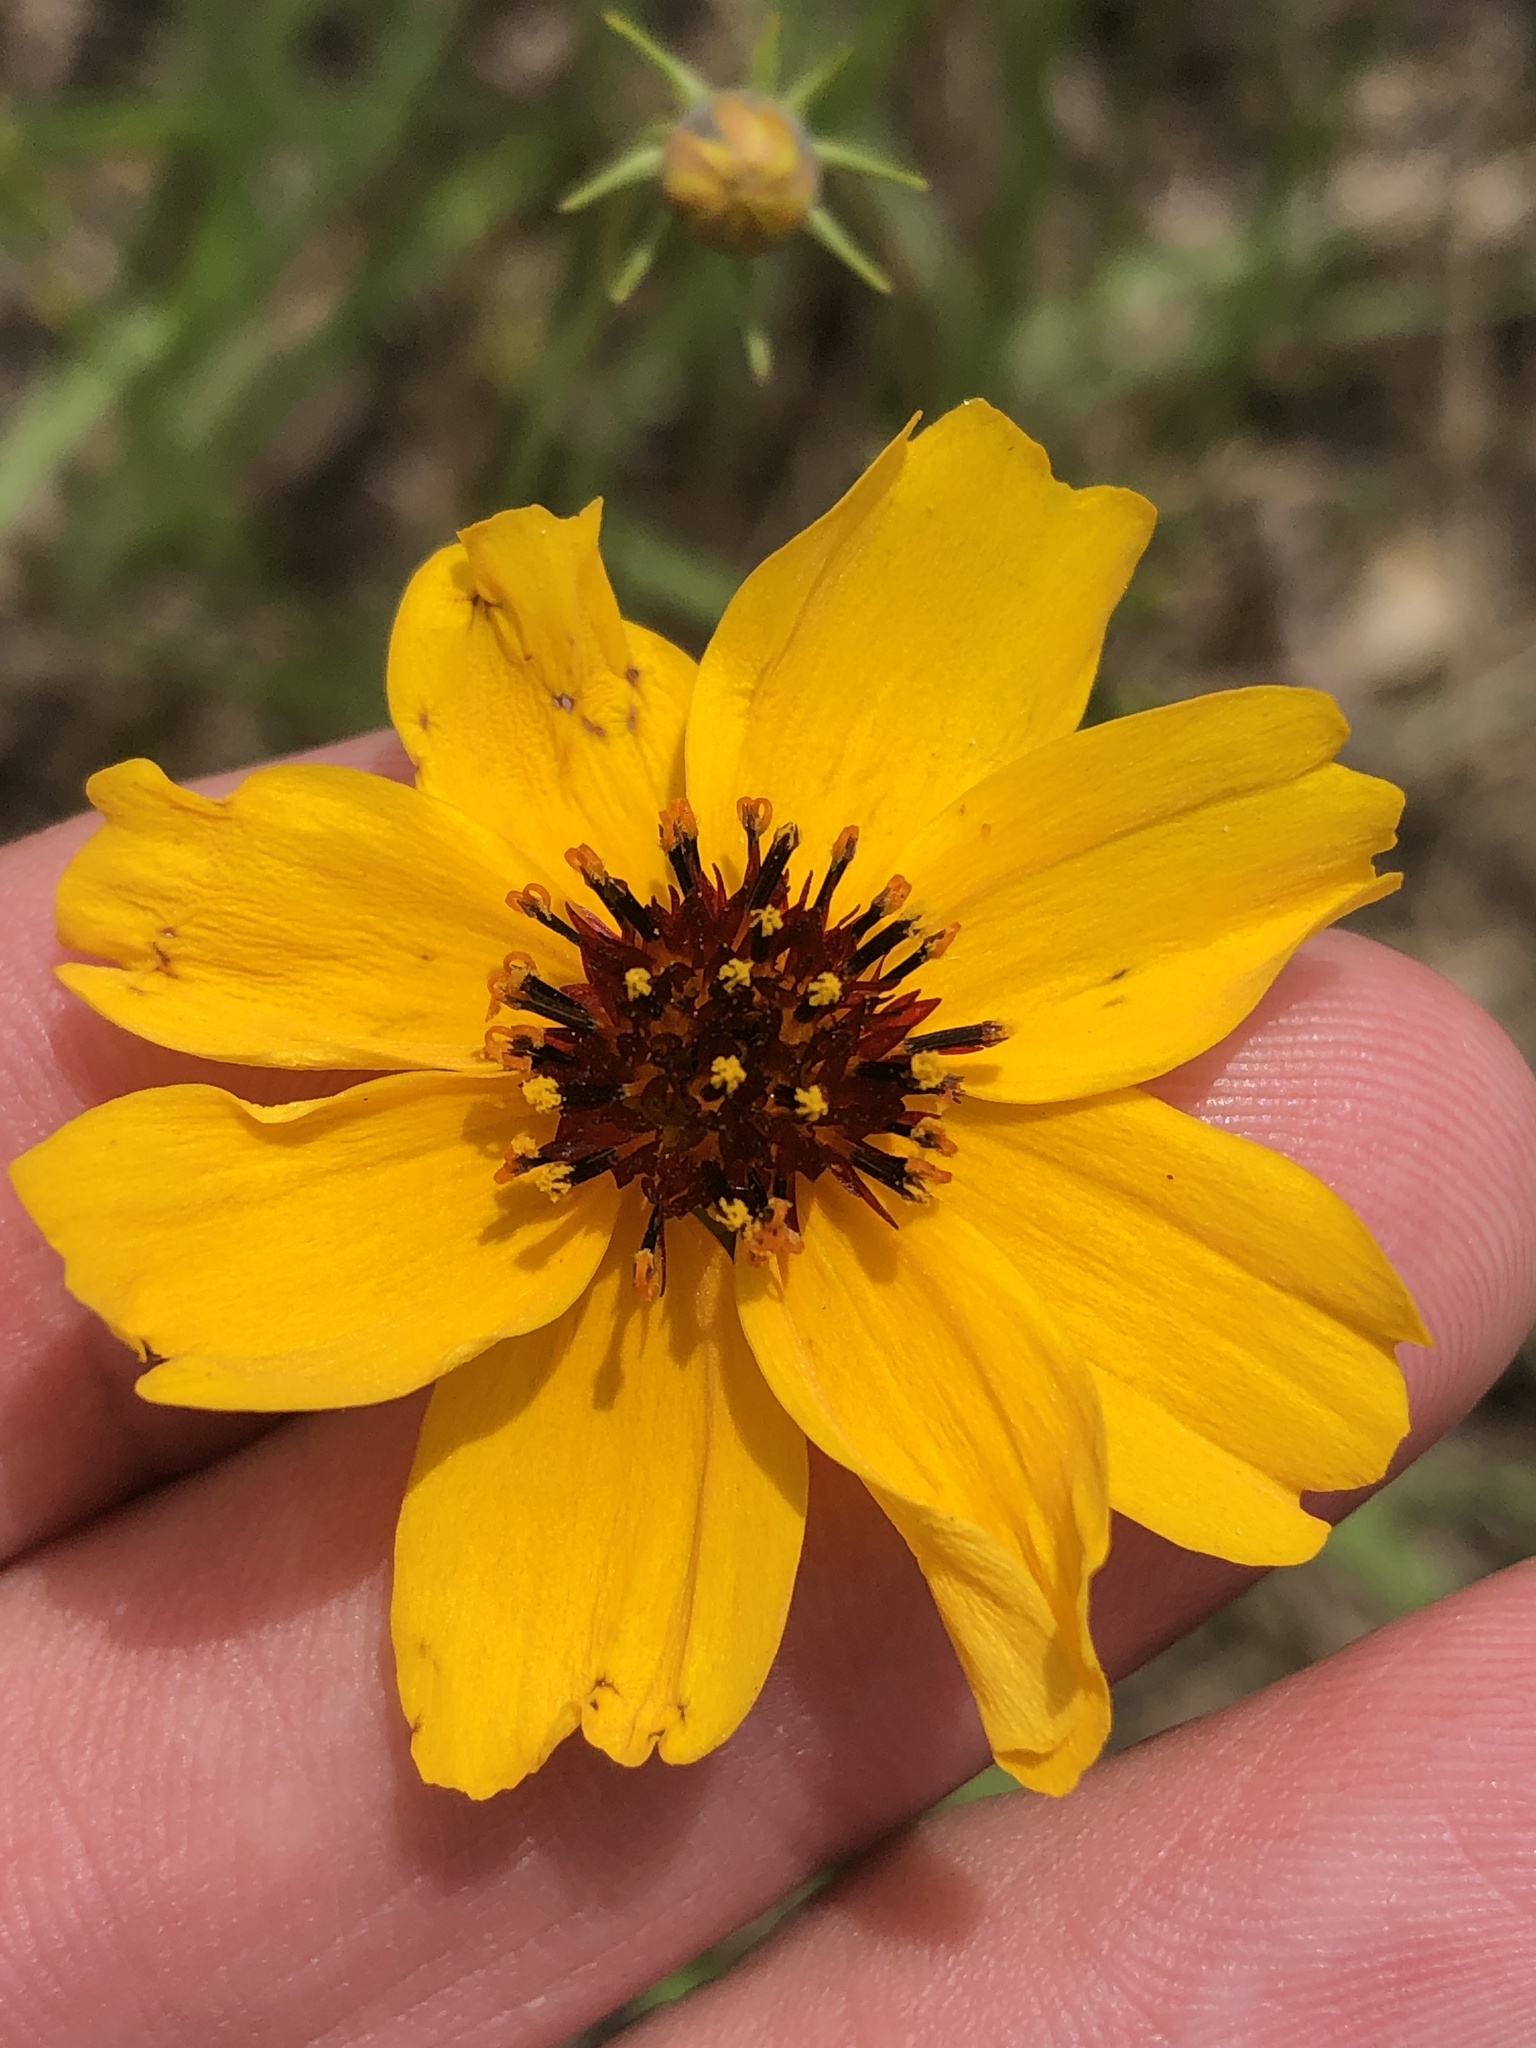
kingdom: Plantae
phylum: Tracheophyta
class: Magnoliopsida
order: Asterales
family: Asteraceae
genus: Thelesperma
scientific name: Thelesperma filifolium
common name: Stiff greenthread
